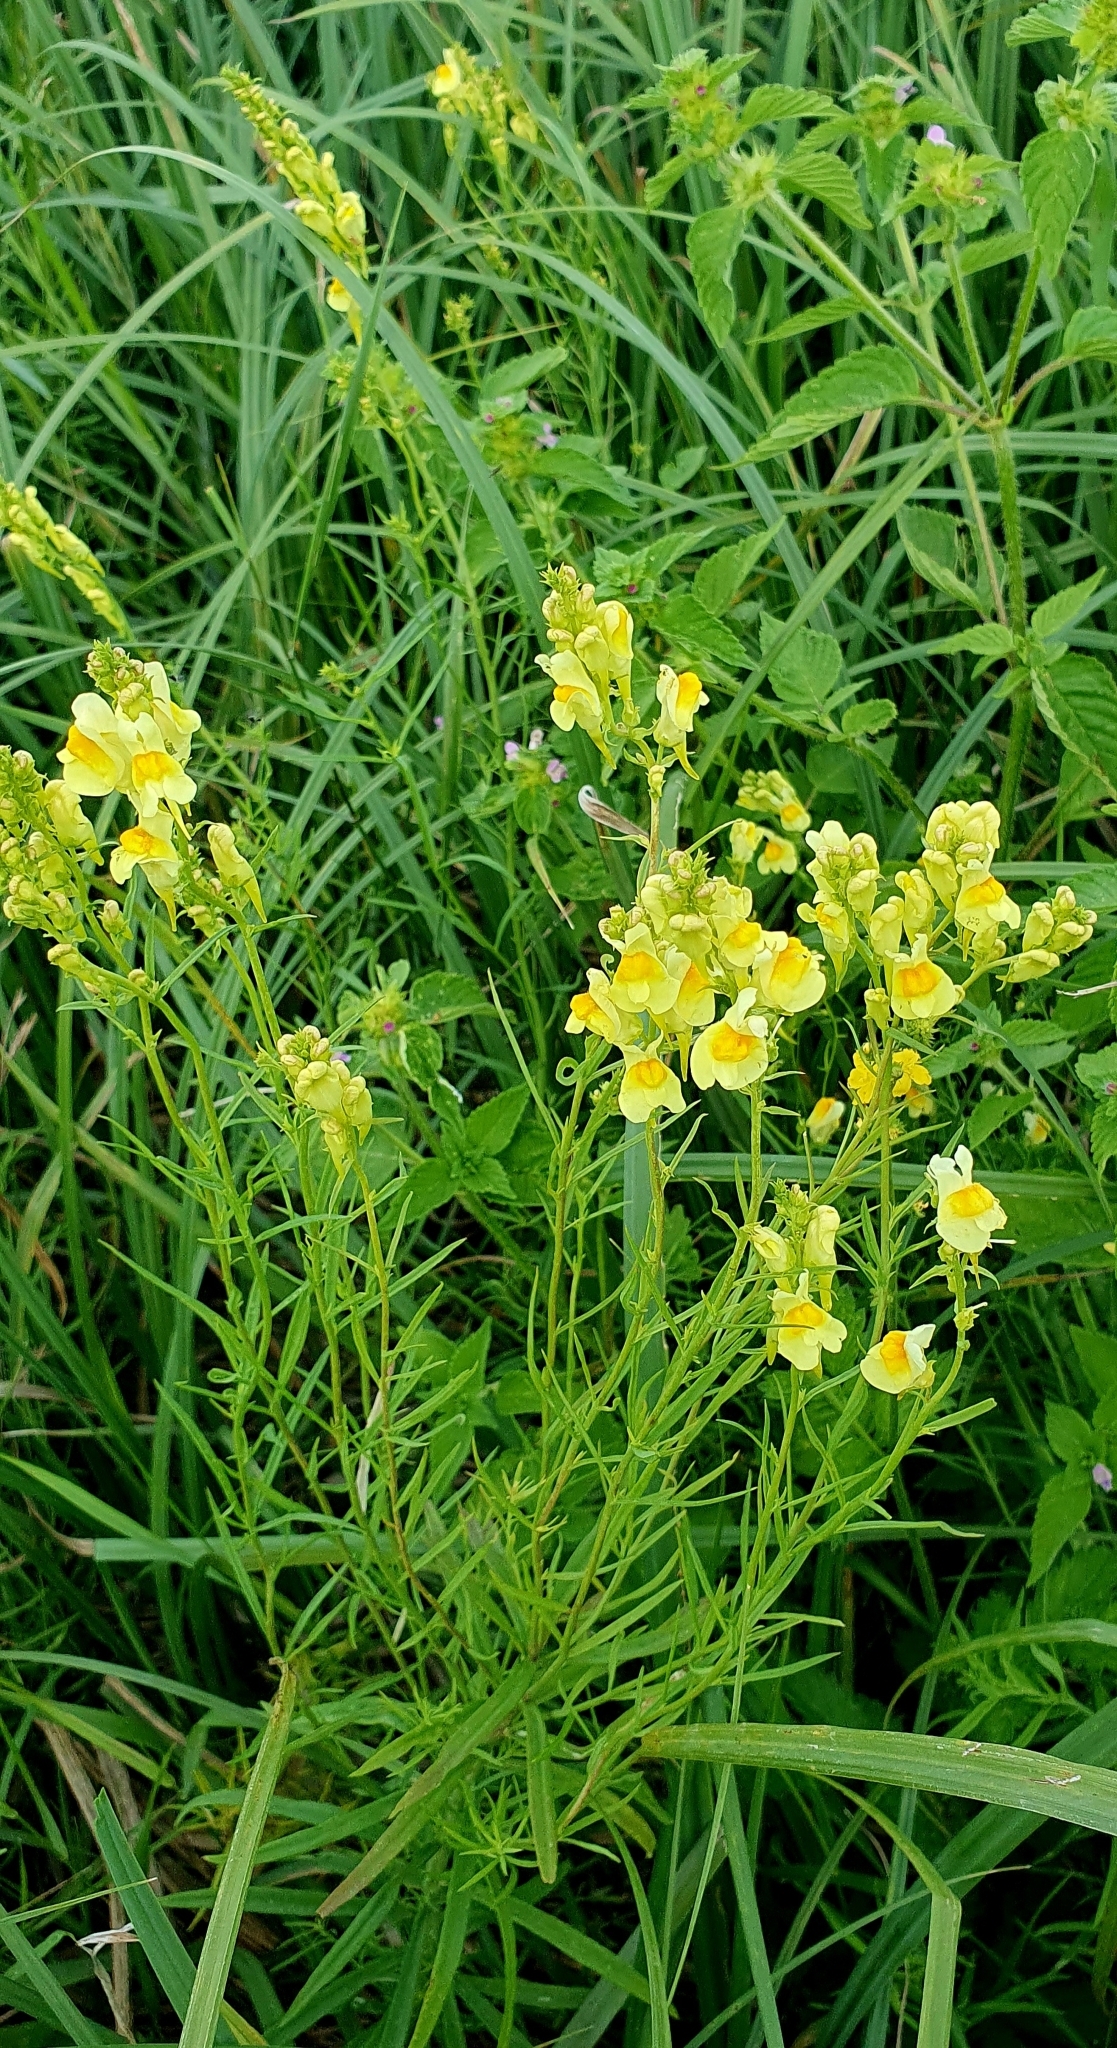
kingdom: Plantae
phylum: Tracheophyta
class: Magnoliopsida
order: Lamiales
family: Plantaginaceae
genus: Linaria
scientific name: Linaria vulgaris
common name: Butter and eggs
